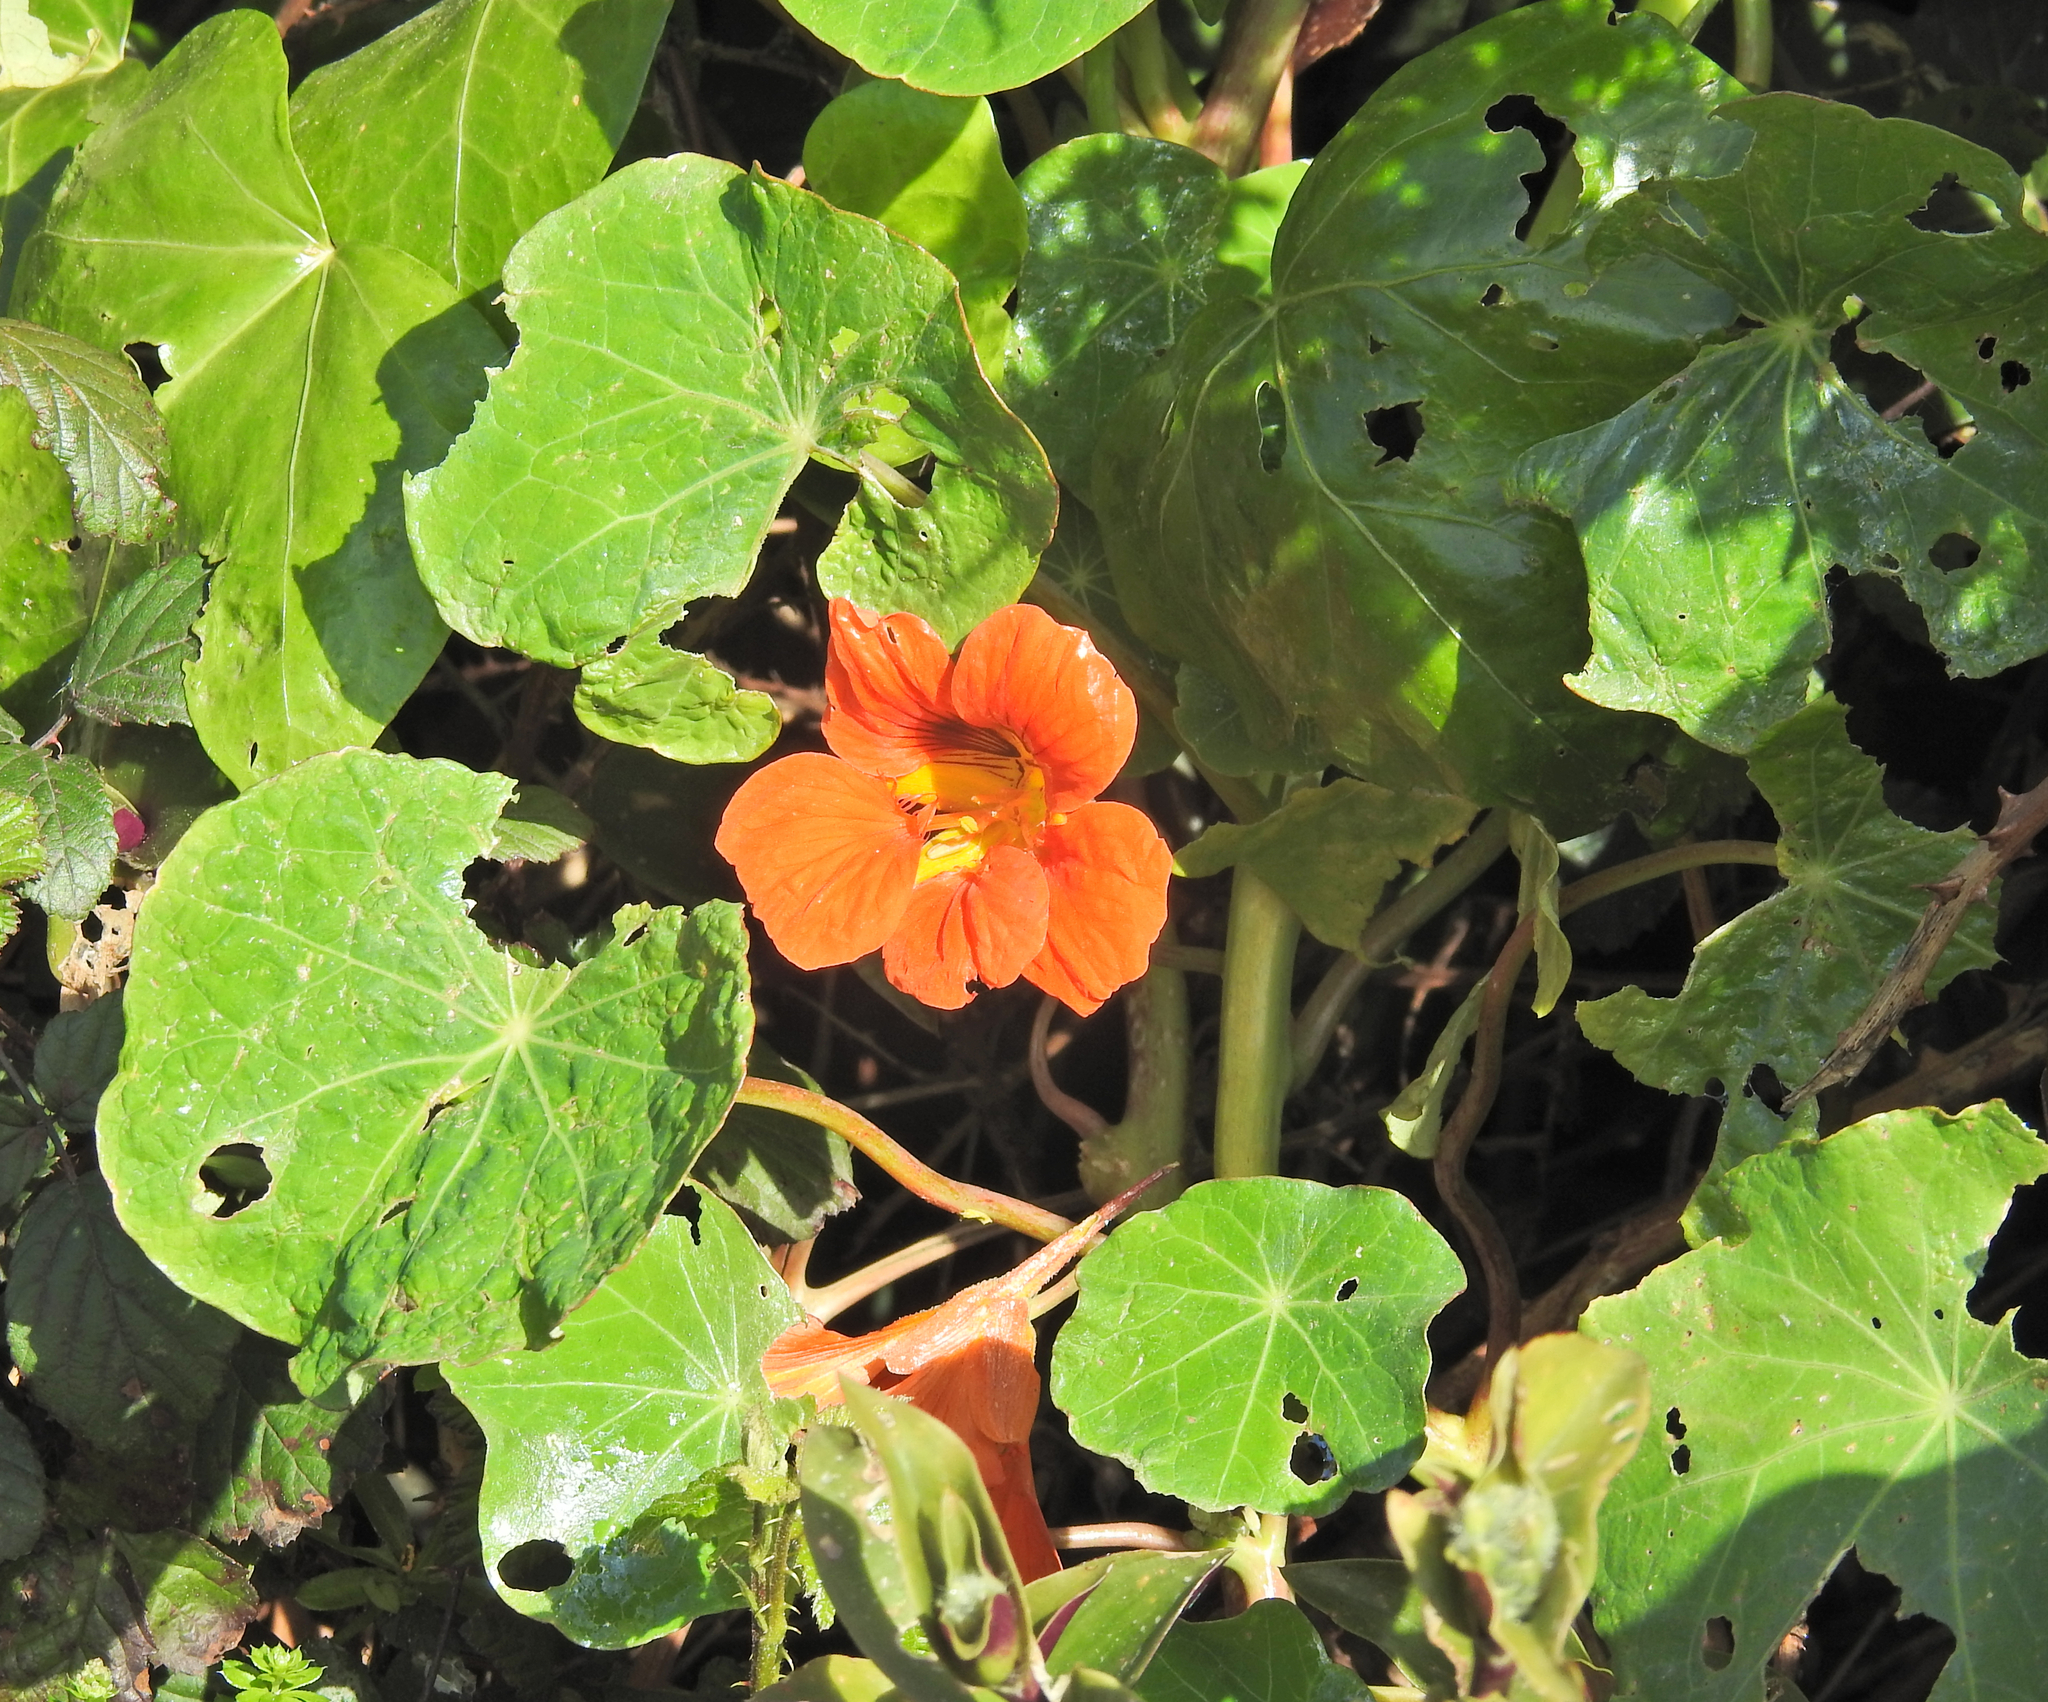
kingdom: Plantae
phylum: Tracheophyta
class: Magnoliopsida
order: Brassicales
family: Tropaeolaceae
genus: Tropaeolum
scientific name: Tropaeolum majus
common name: Nasturtium
